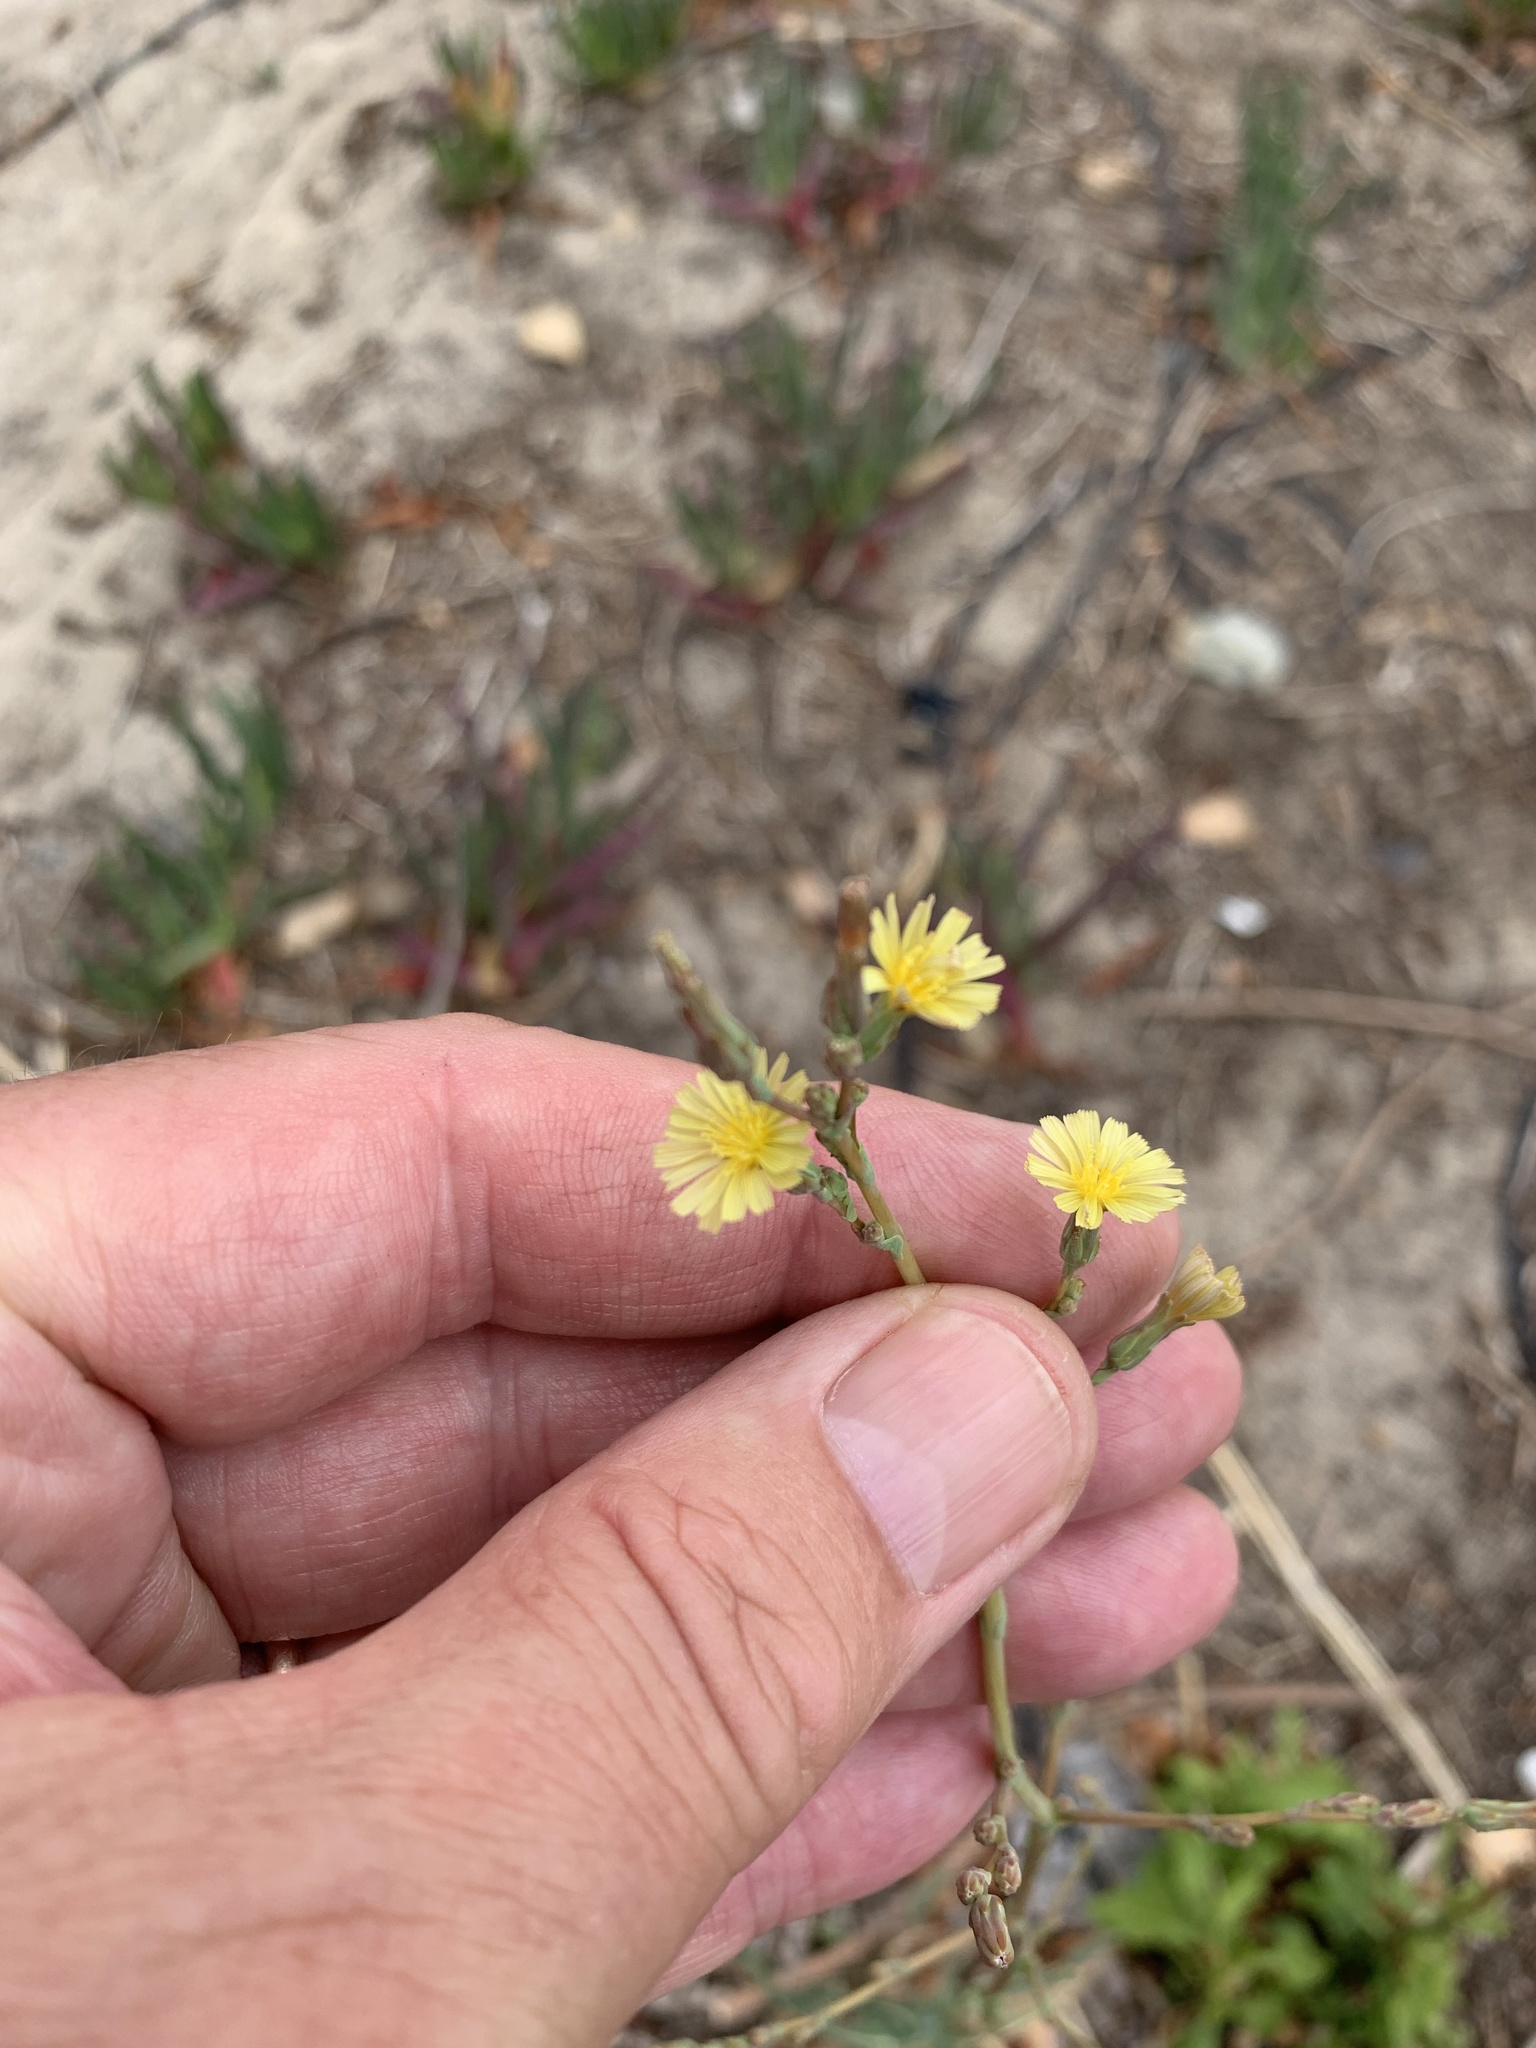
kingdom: Plantae
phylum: Tracheophyta
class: Magnoliopsida
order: Asterales
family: Asteraceae
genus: Lactuca
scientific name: Lactuca serriola
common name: Prickly lettuce
